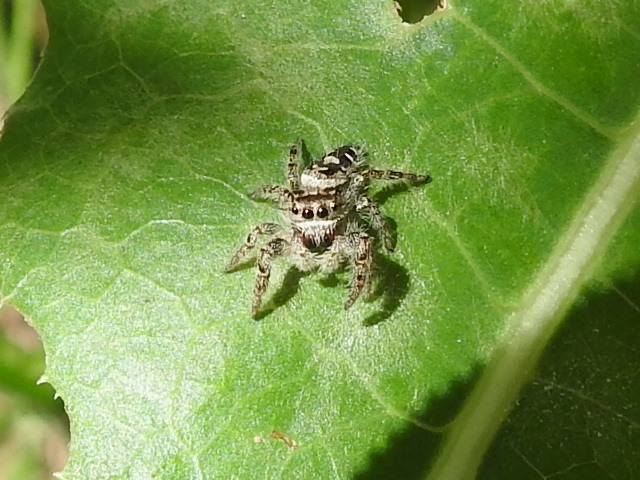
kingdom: Animalia
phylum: Arthropoda
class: Arachnida
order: Araneae
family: Salticidae
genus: Phidippus
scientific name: Phidippus carolinensis
